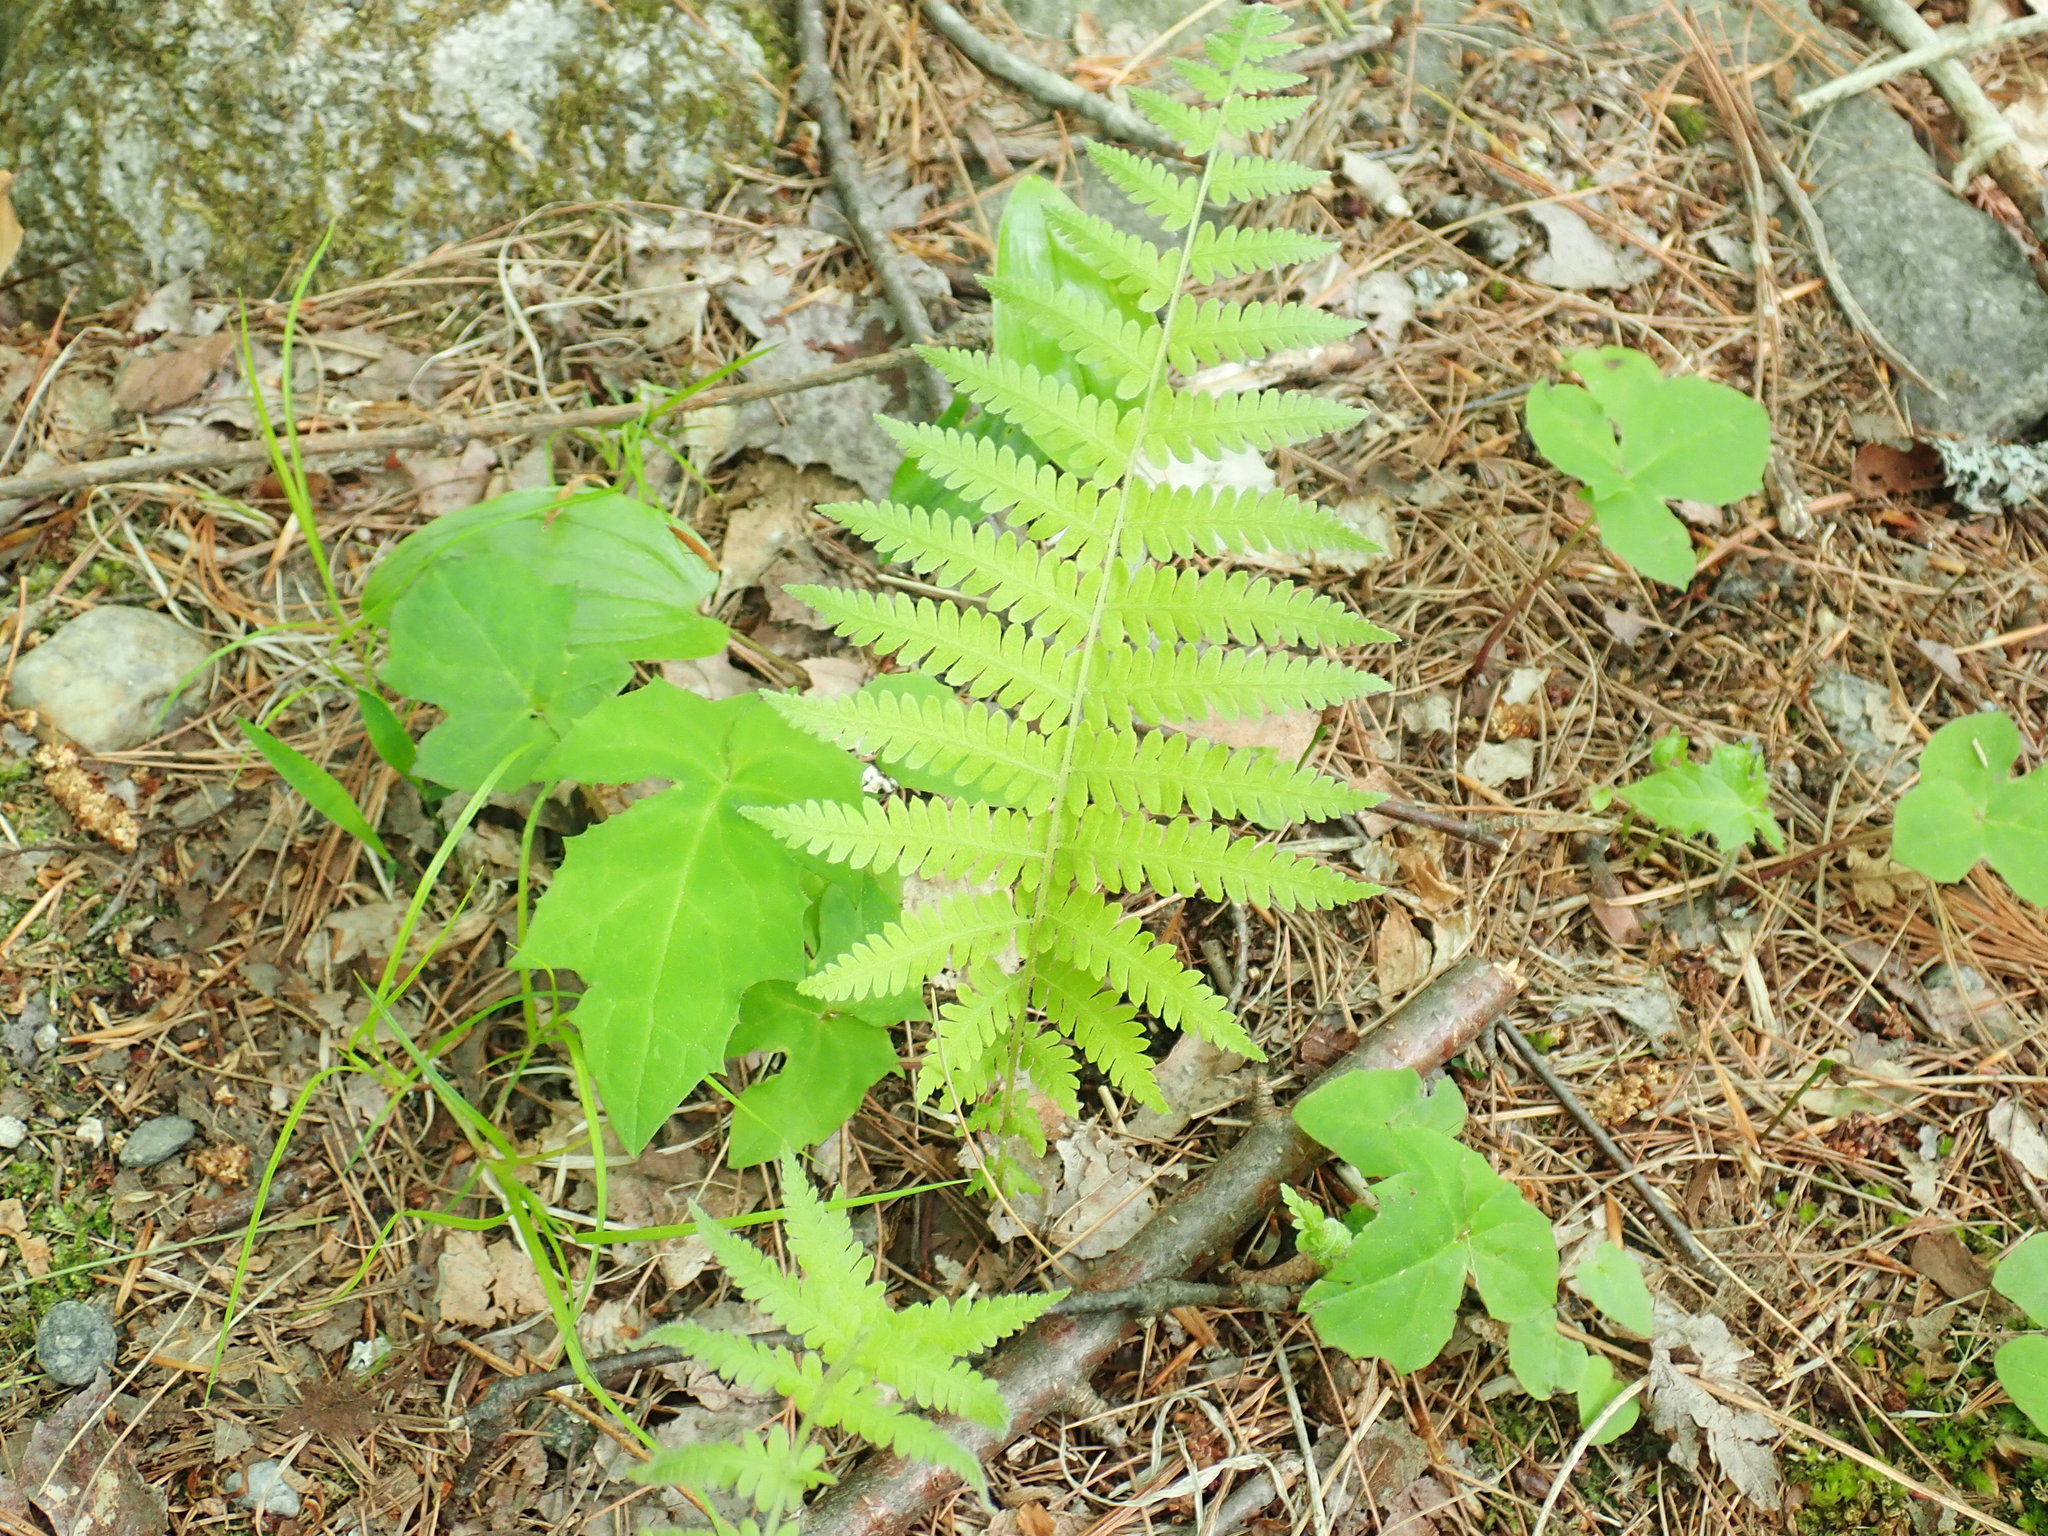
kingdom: Plantae
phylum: Tracheophyta
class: Polypodiopsida
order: Polypodiales
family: Thelypteridaceae
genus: Amauropelta
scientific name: Amauropelta noveboracensis
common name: New york fern
